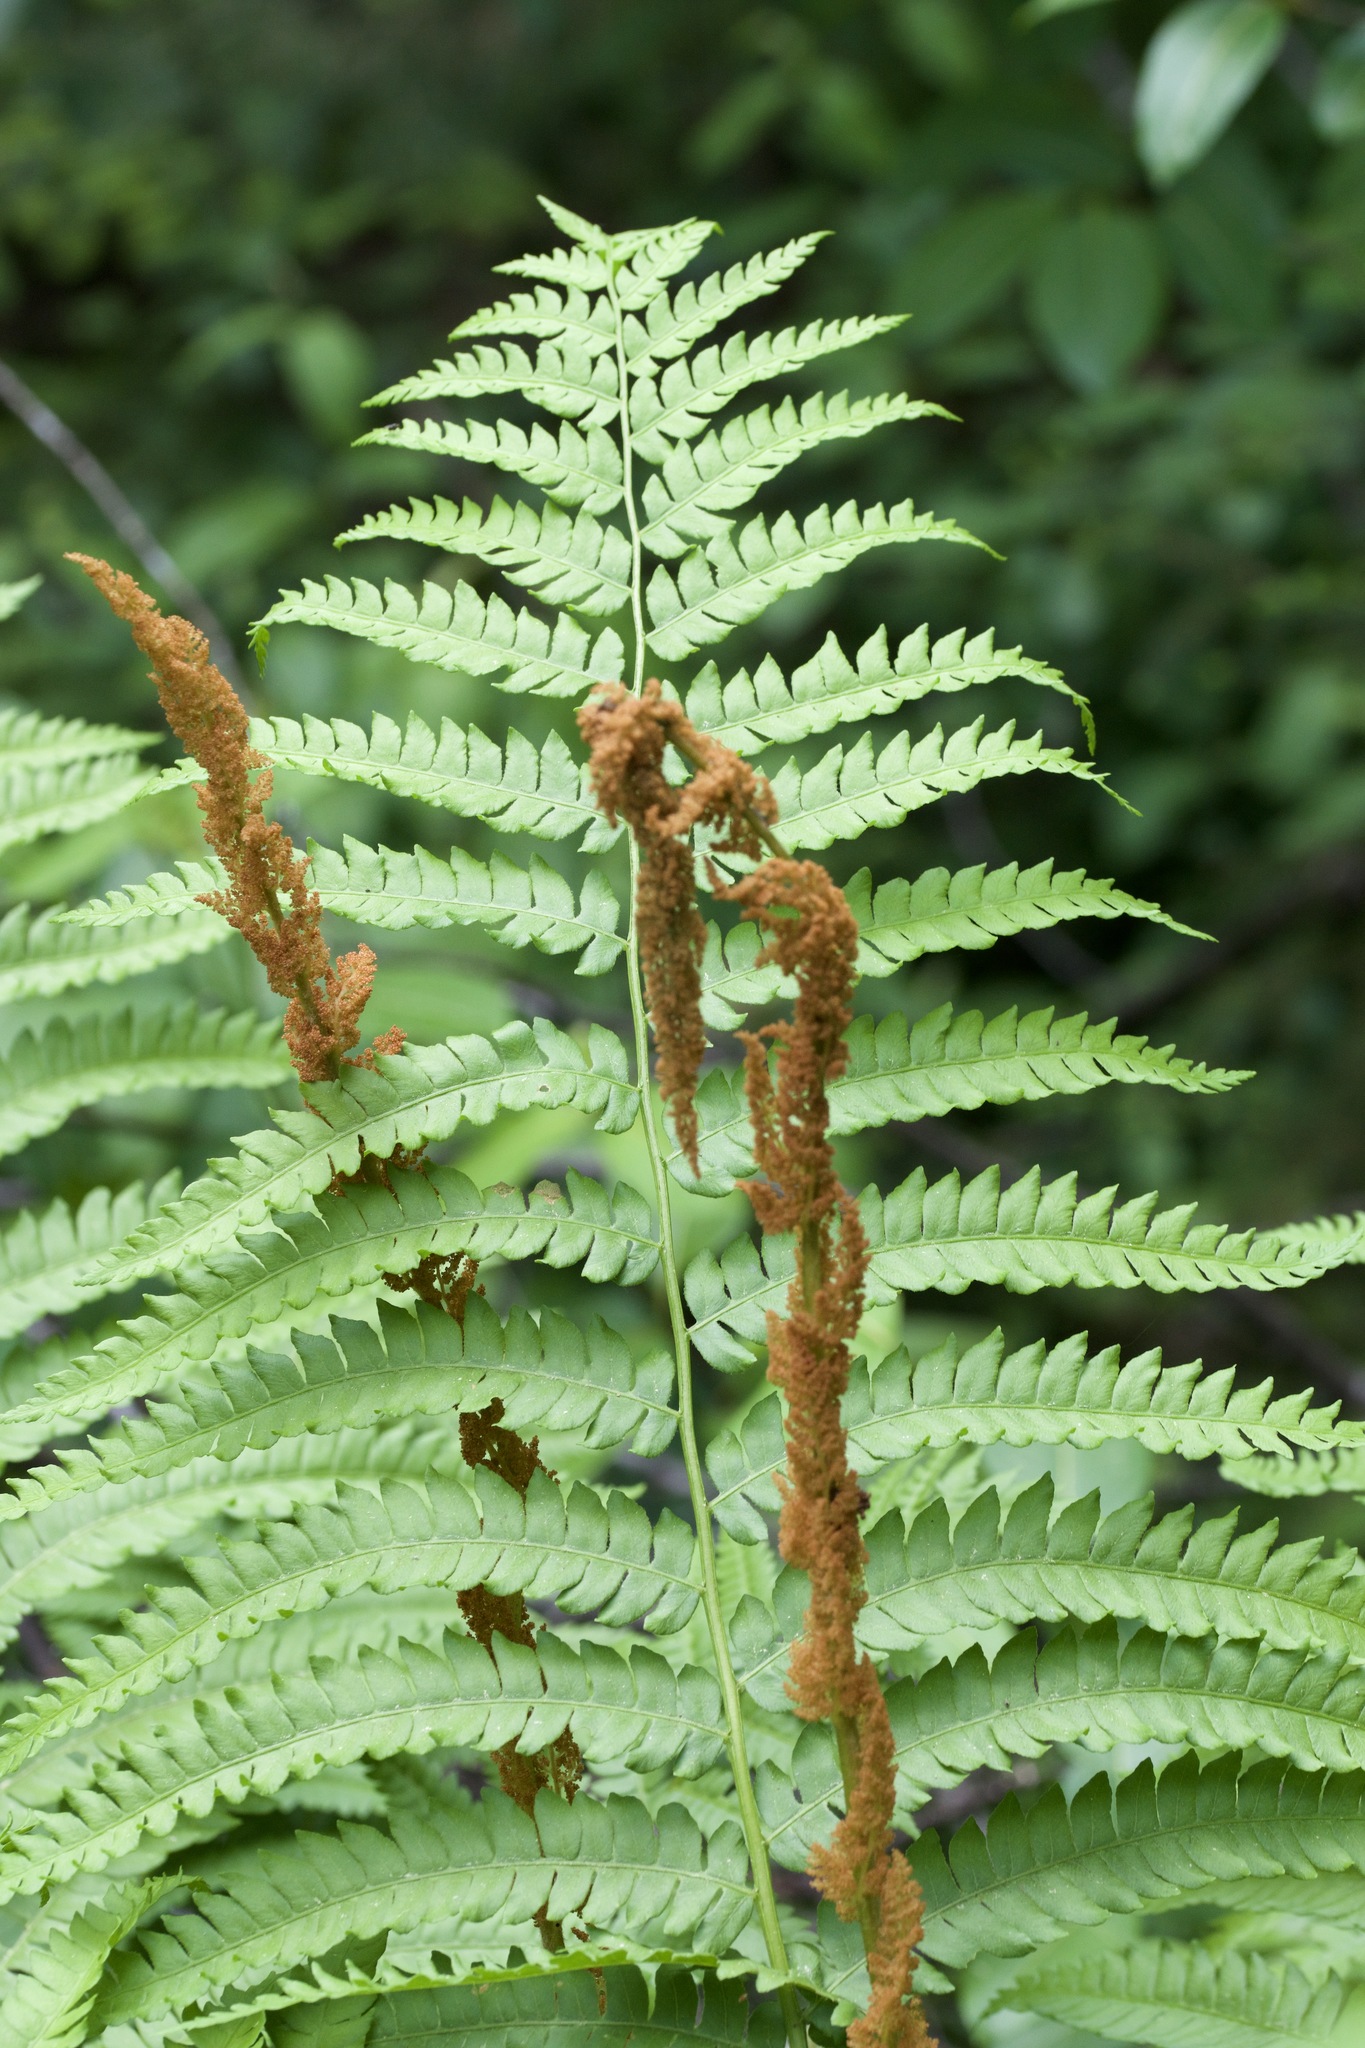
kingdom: Plantae
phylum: Tracheophyta
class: Polypodiopsida
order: Osmundales
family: Osmundaceae
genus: Osmundastrum
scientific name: Osmundastrum cinnamomeum
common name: Cinnamon fern
